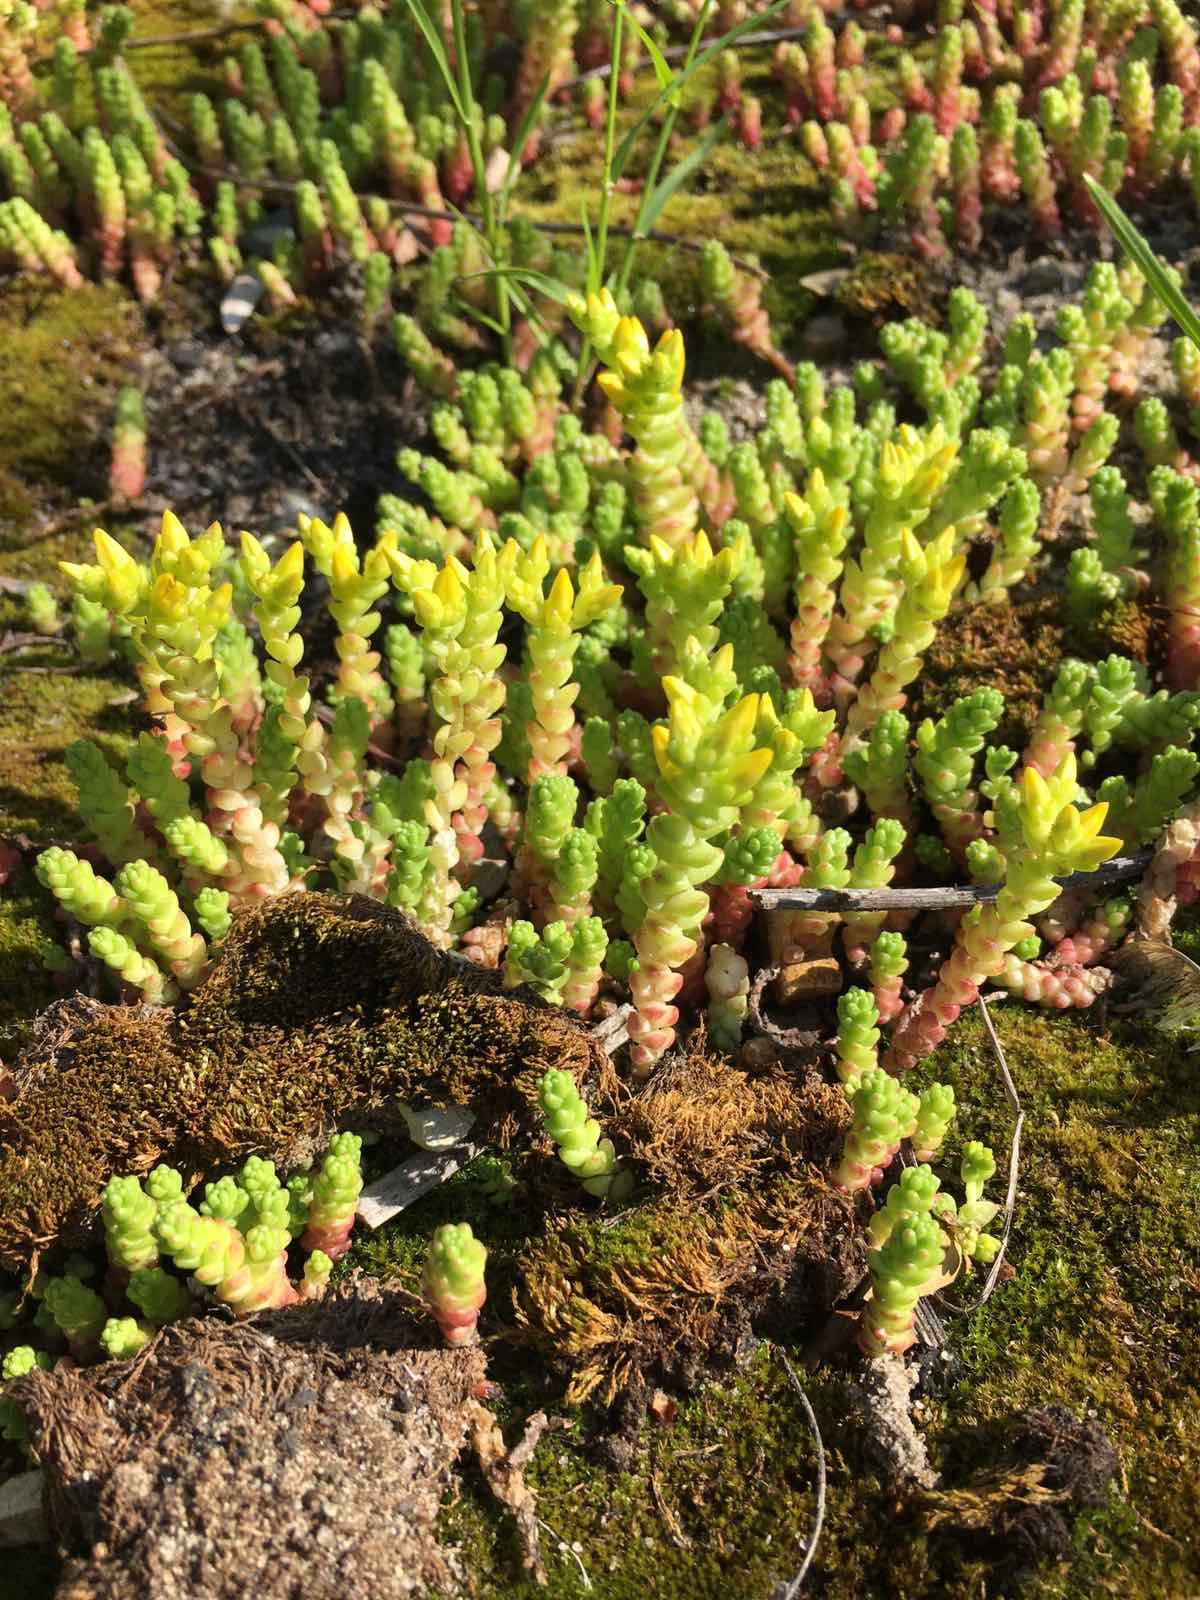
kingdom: Plantae
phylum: Tracheophyta
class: Magnoliopsida
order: Saxifragales
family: Crassulaceae
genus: Sedum
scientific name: Sedum acre
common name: Biting stonecrop
